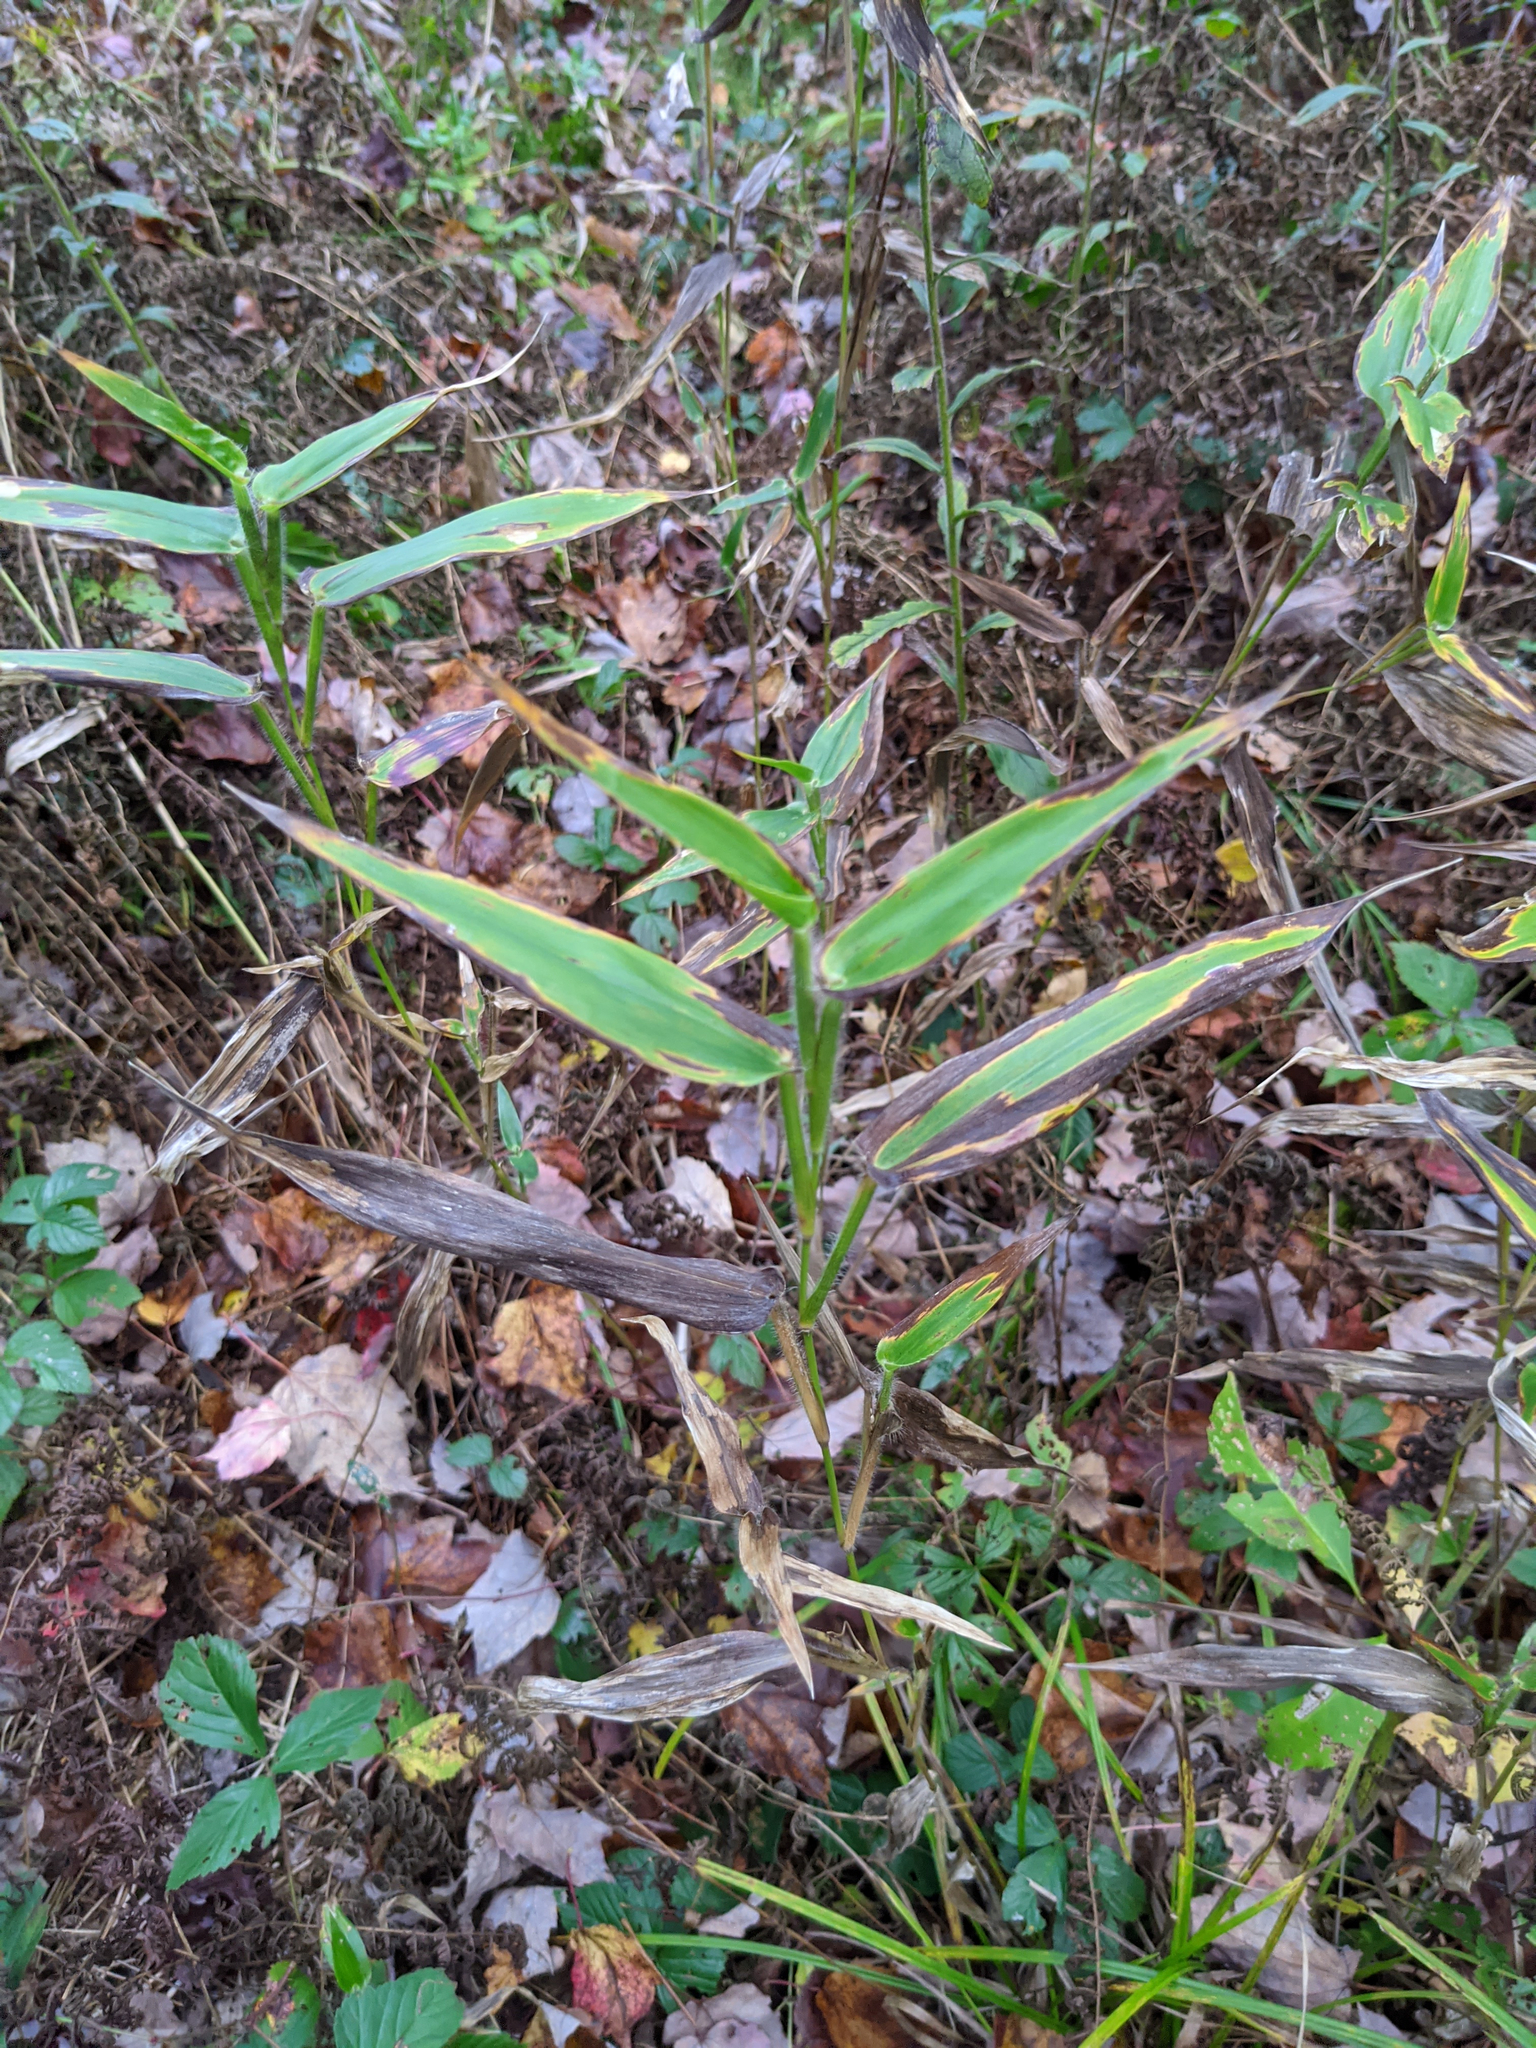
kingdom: Plantae
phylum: Tracheophyta
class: Liliopsida
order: Poales
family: Poaceae
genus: Dichanthelium
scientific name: Dichanthelium clandestinum
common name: Deer-tongue grass
